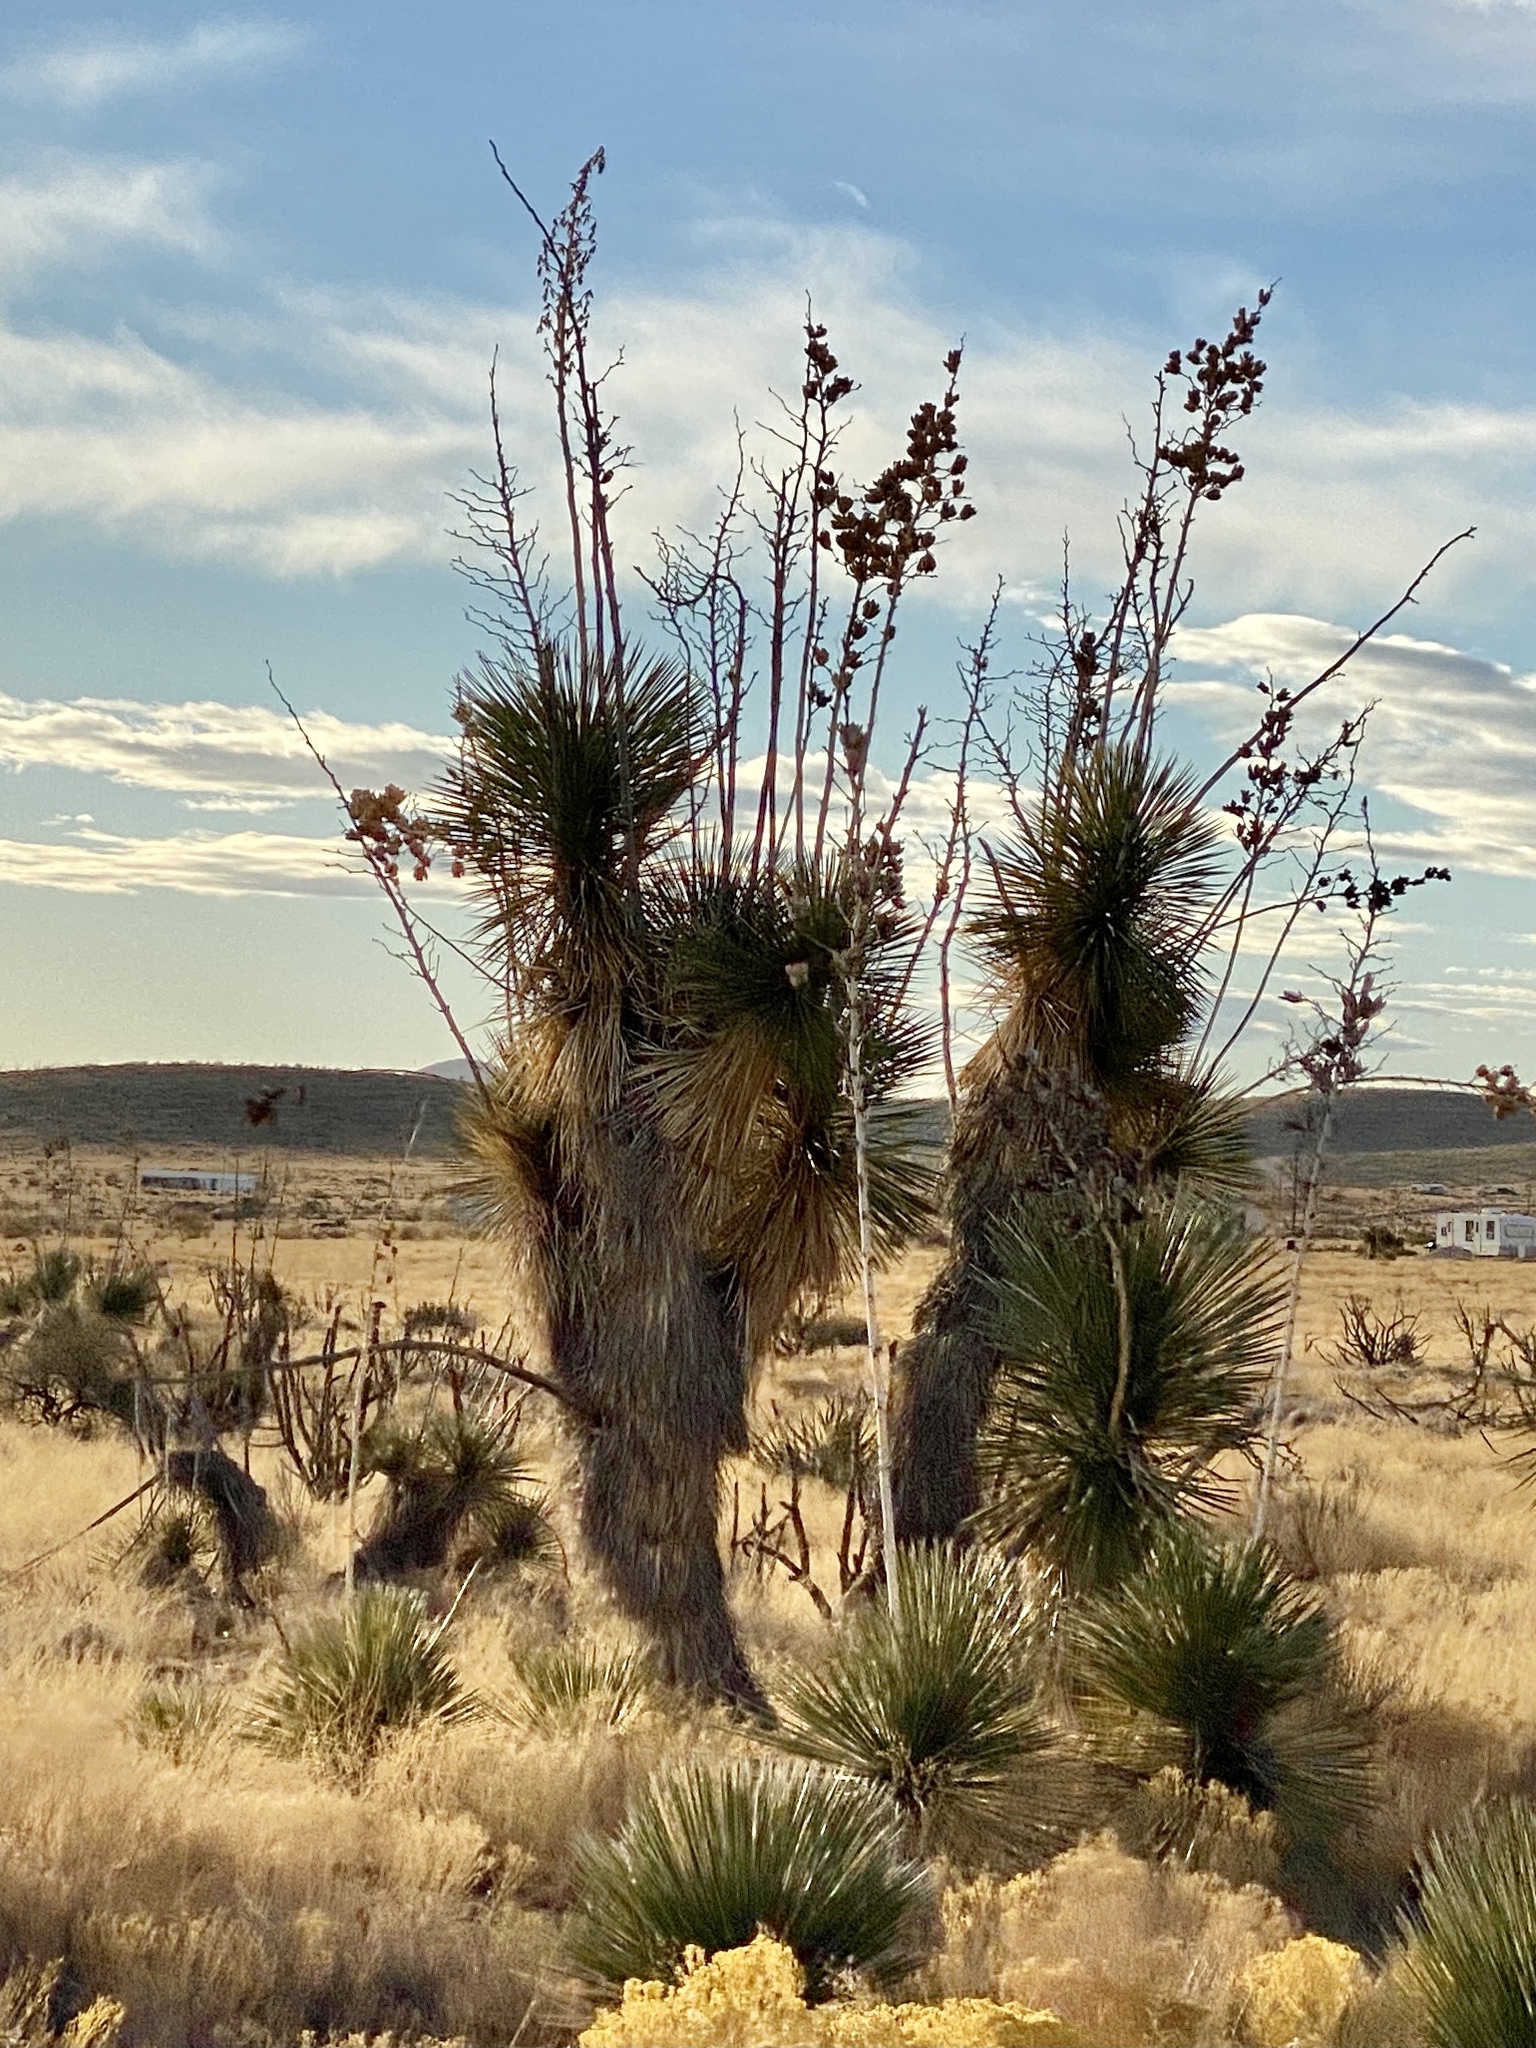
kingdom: Plantae
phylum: Tracheophyta
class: Liliopsida
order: Asparagales
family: Asparagaceae
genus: Yucca
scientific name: Yucca elata
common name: Palmella
